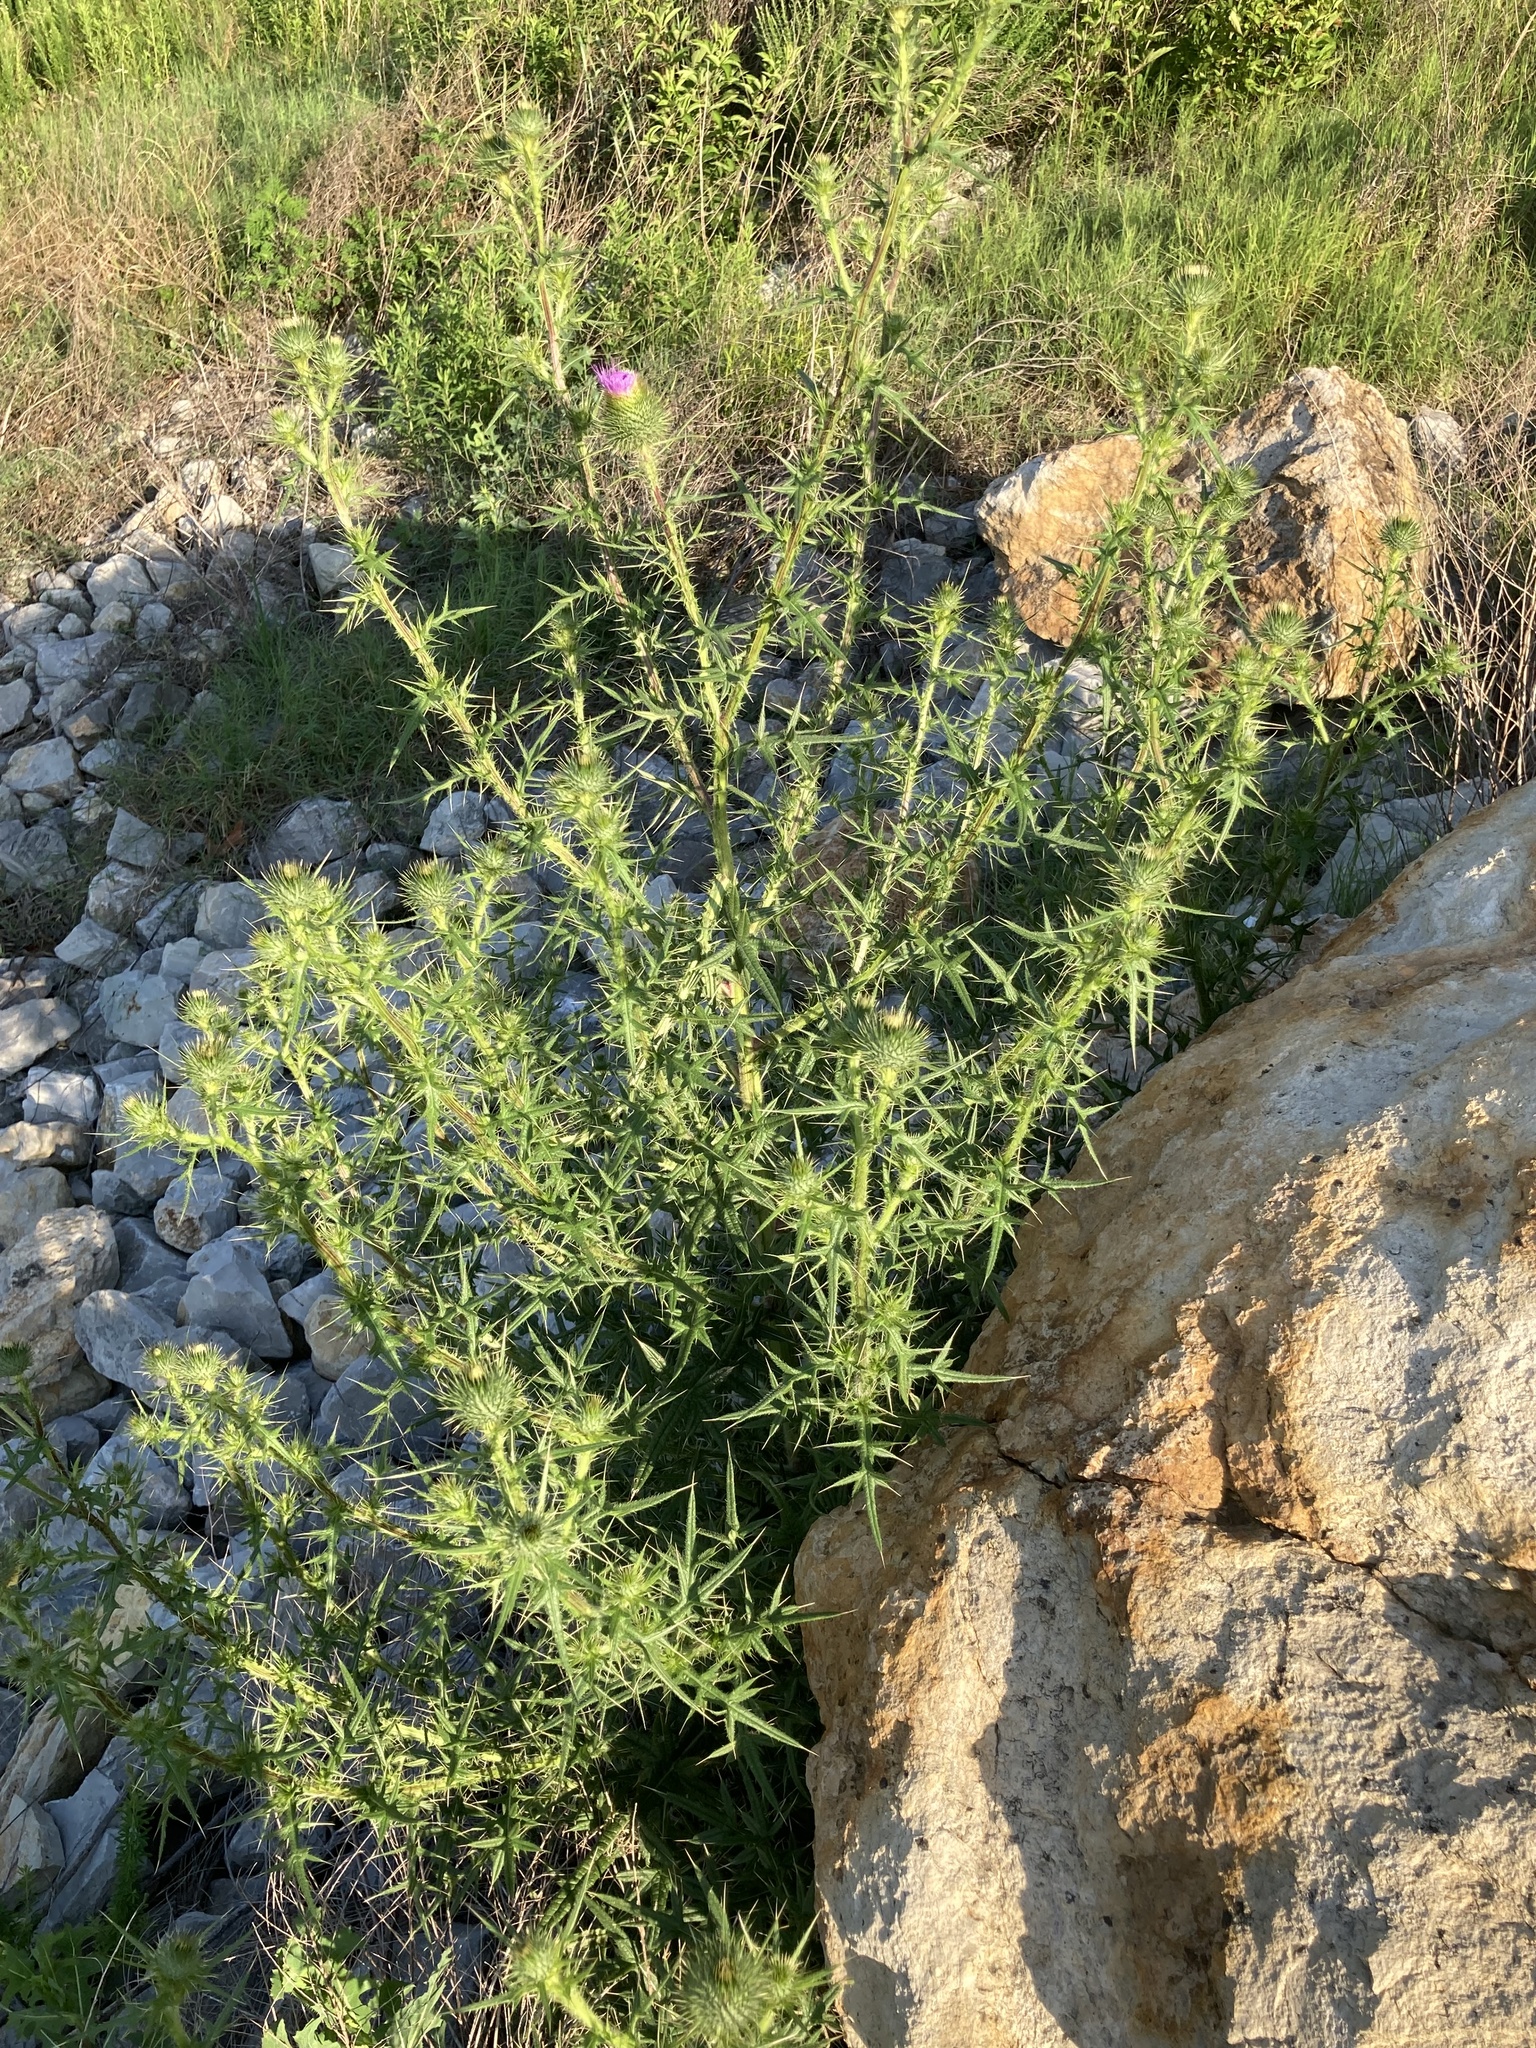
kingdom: Plantae
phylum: Tracheophyta
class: Magnoliopsida
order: Asterales
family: Asteraceae
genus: Cirsium
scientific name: Cirsium vulgare
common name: Bull thistle
